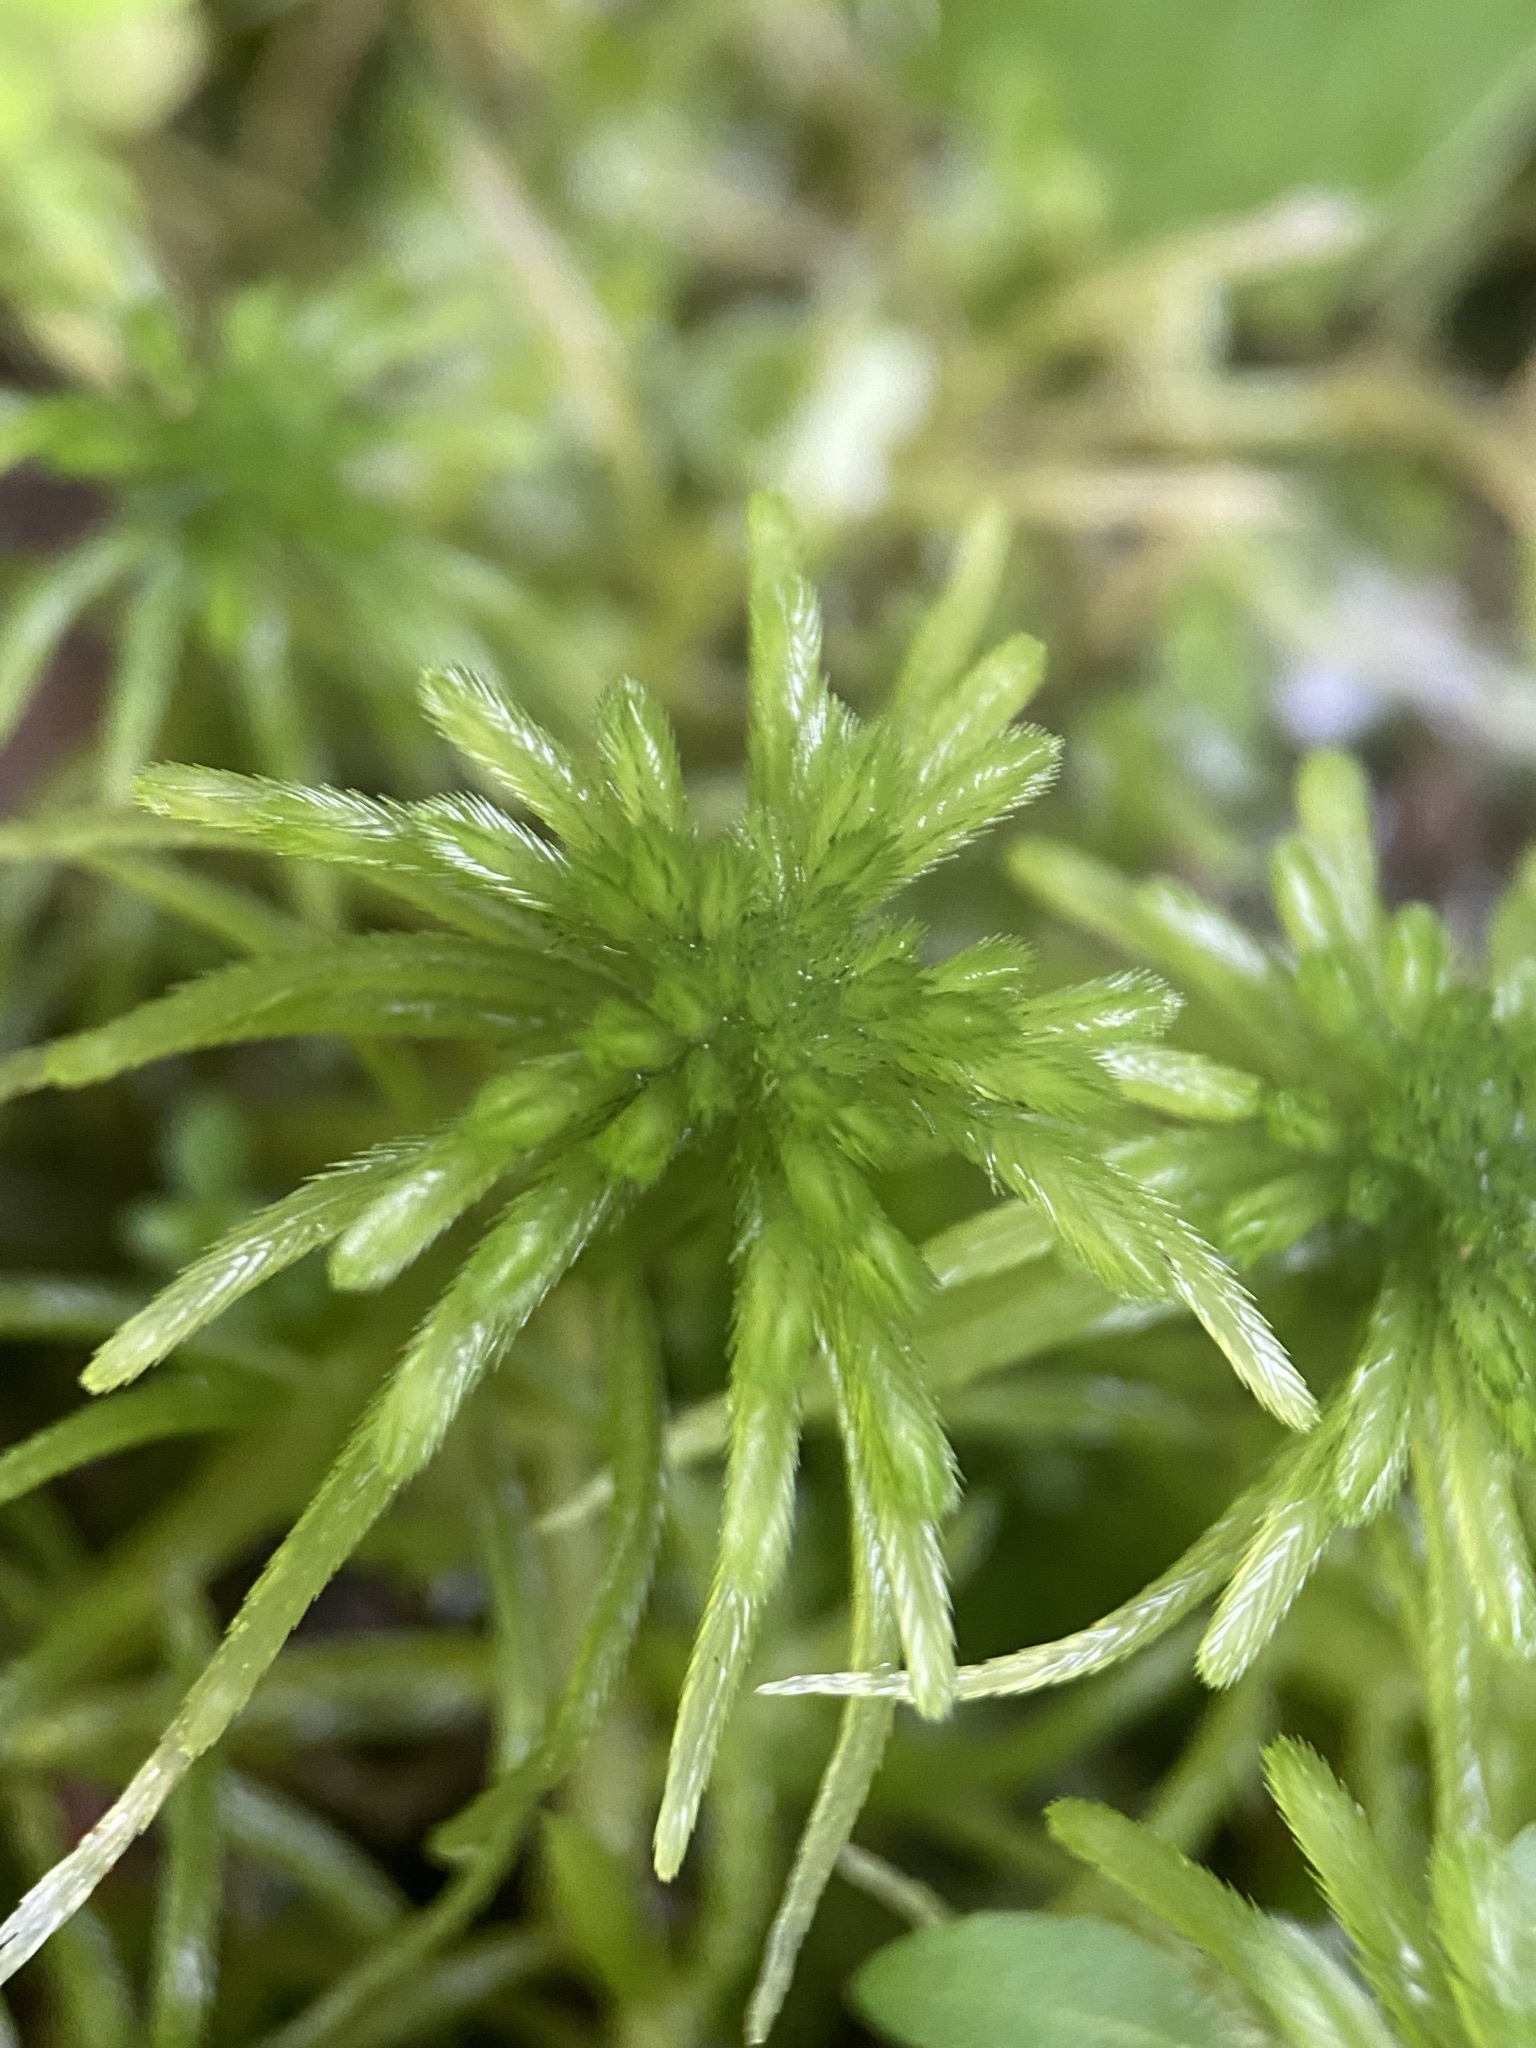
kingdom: Plantae
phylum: Bryophyta
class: Sphagnopsida
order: Sphagnales
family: Sphagnaceae
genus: Sphagnum
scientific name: Sphagnum recurvum
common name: Recurved peatmoss
